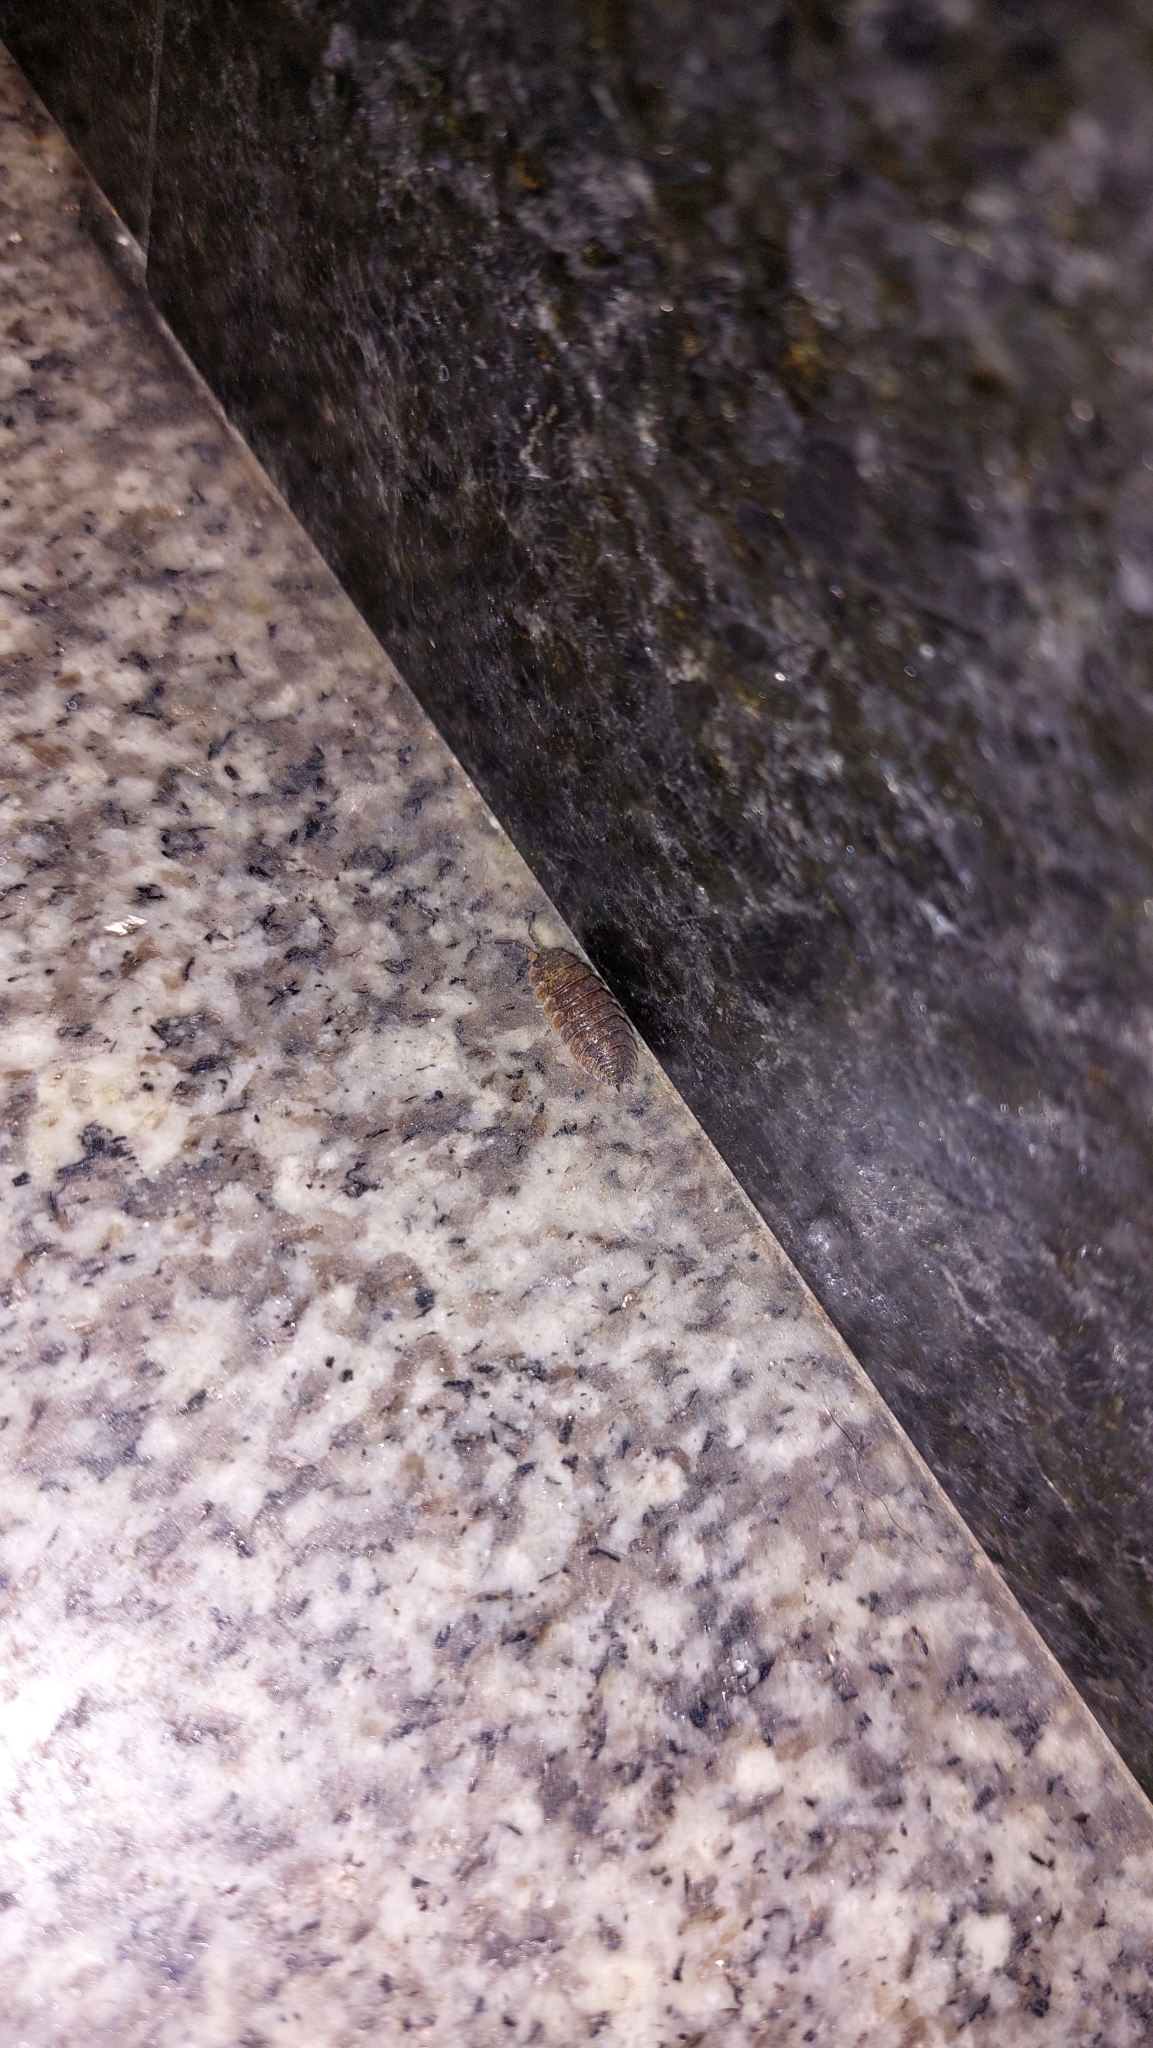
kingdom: Animalia
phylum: Arthropoda
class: Malacostraca
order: Isopoda
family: Porcellionidae
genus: Porcellio
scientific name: Porcellio scaber
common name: Common rough woodlouse
